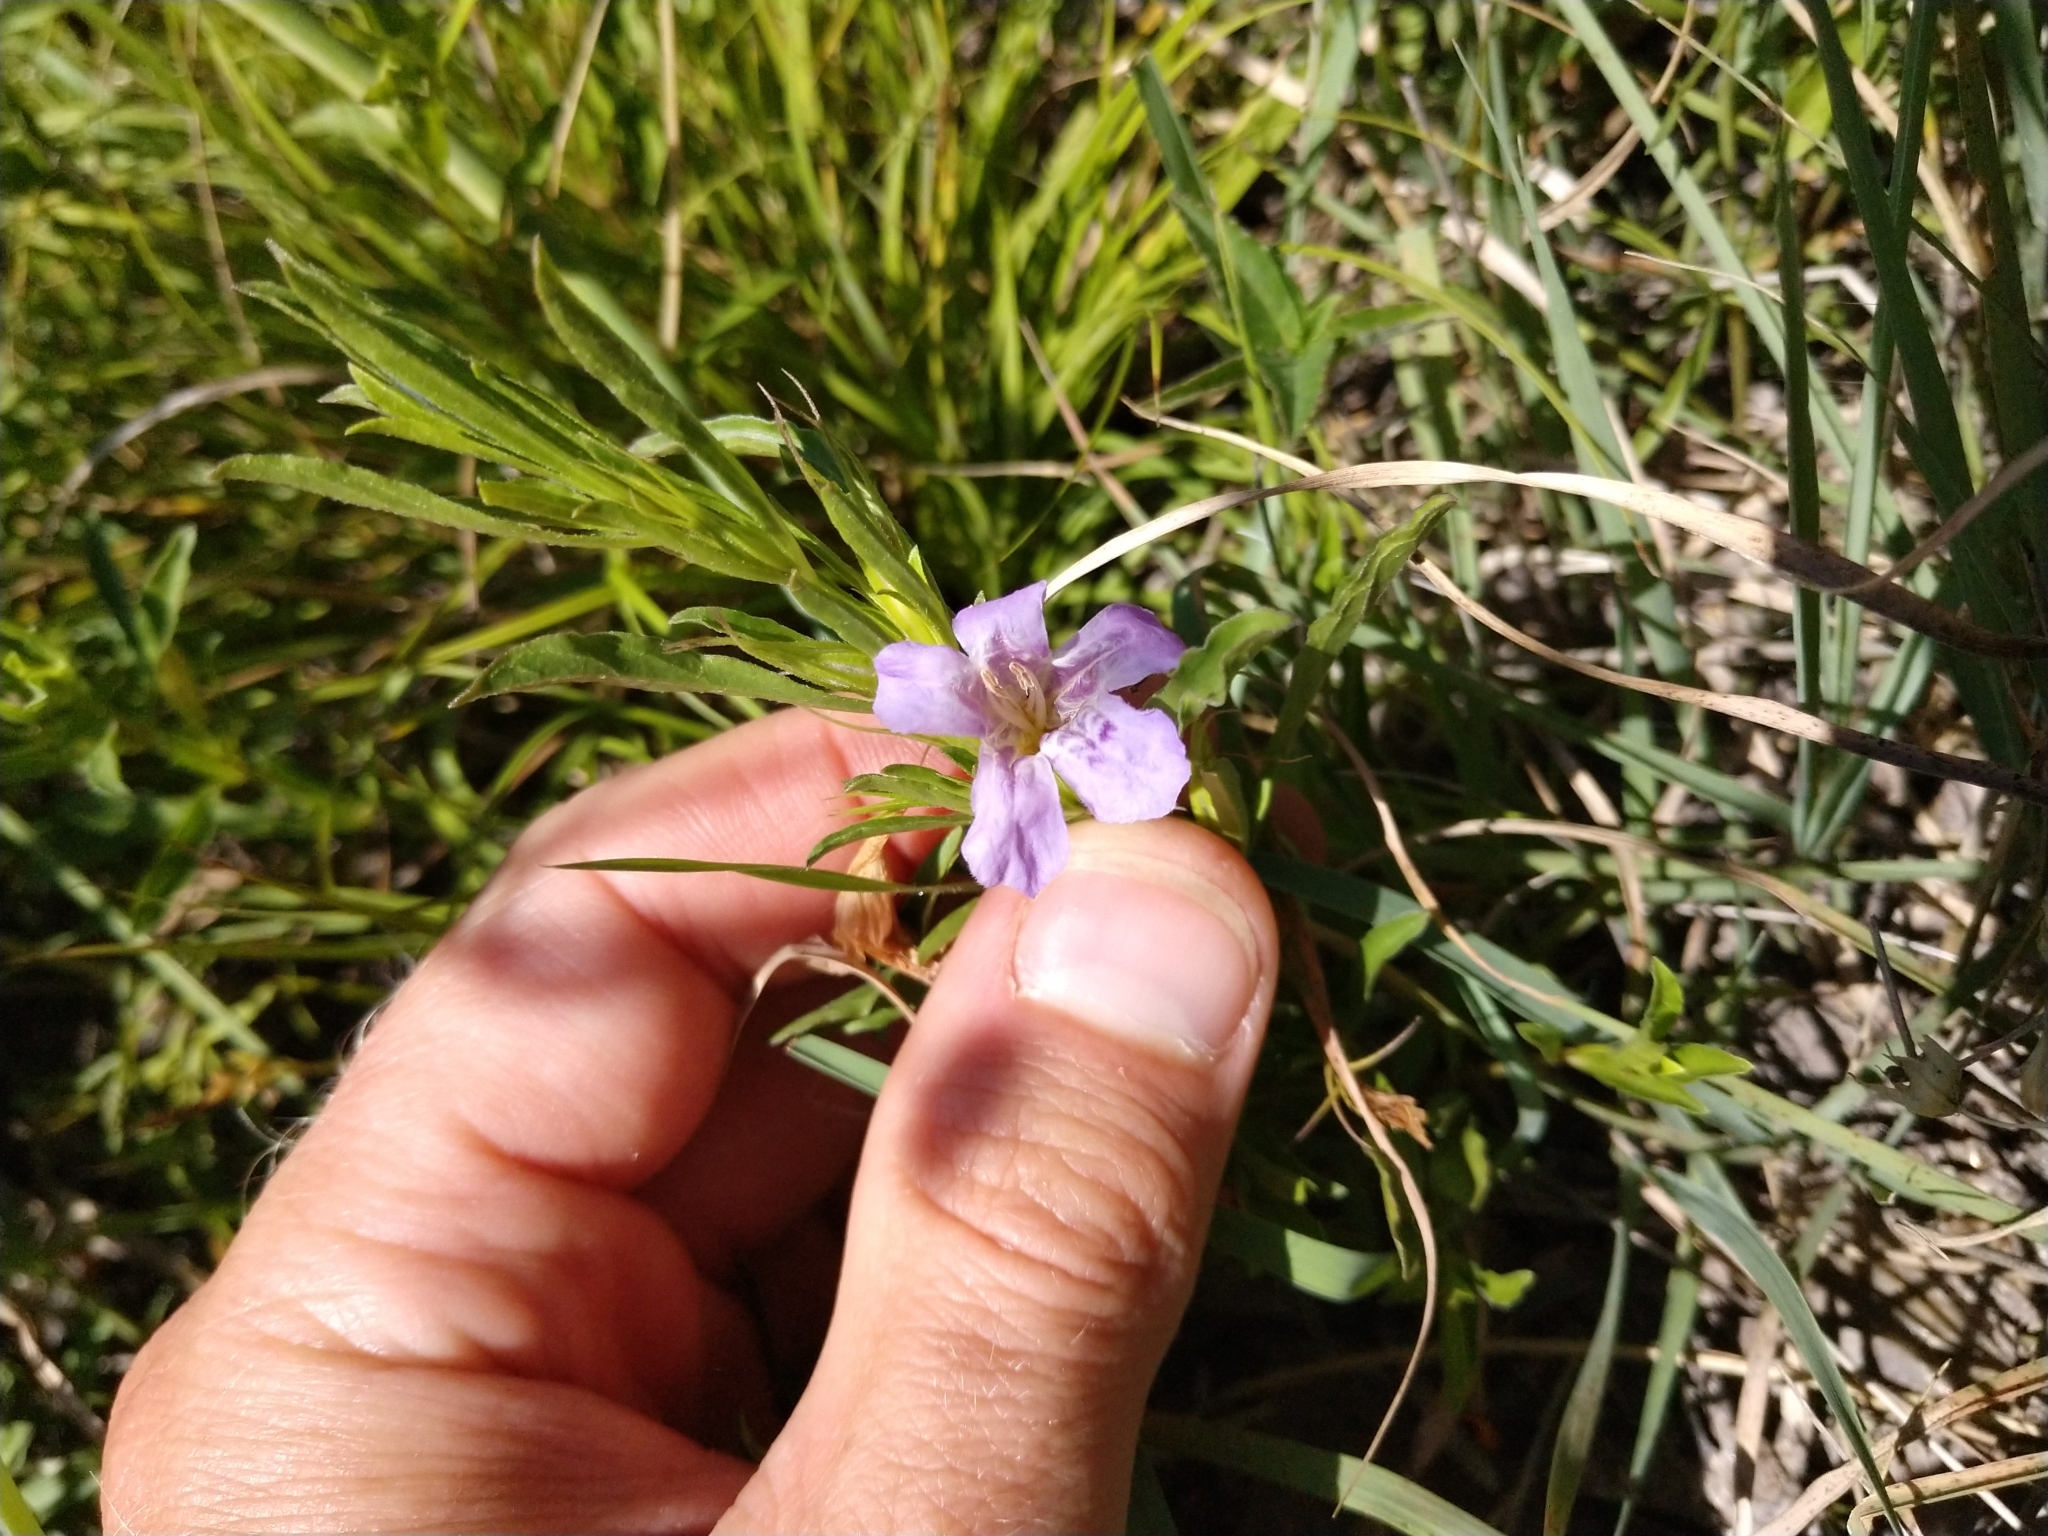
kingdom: Plantae
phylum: Tracheophyta
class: Magnoliopsida
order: Lamiales
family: Acanthaceae
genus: Dyschoriste
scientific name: Dyschoriste linearis
